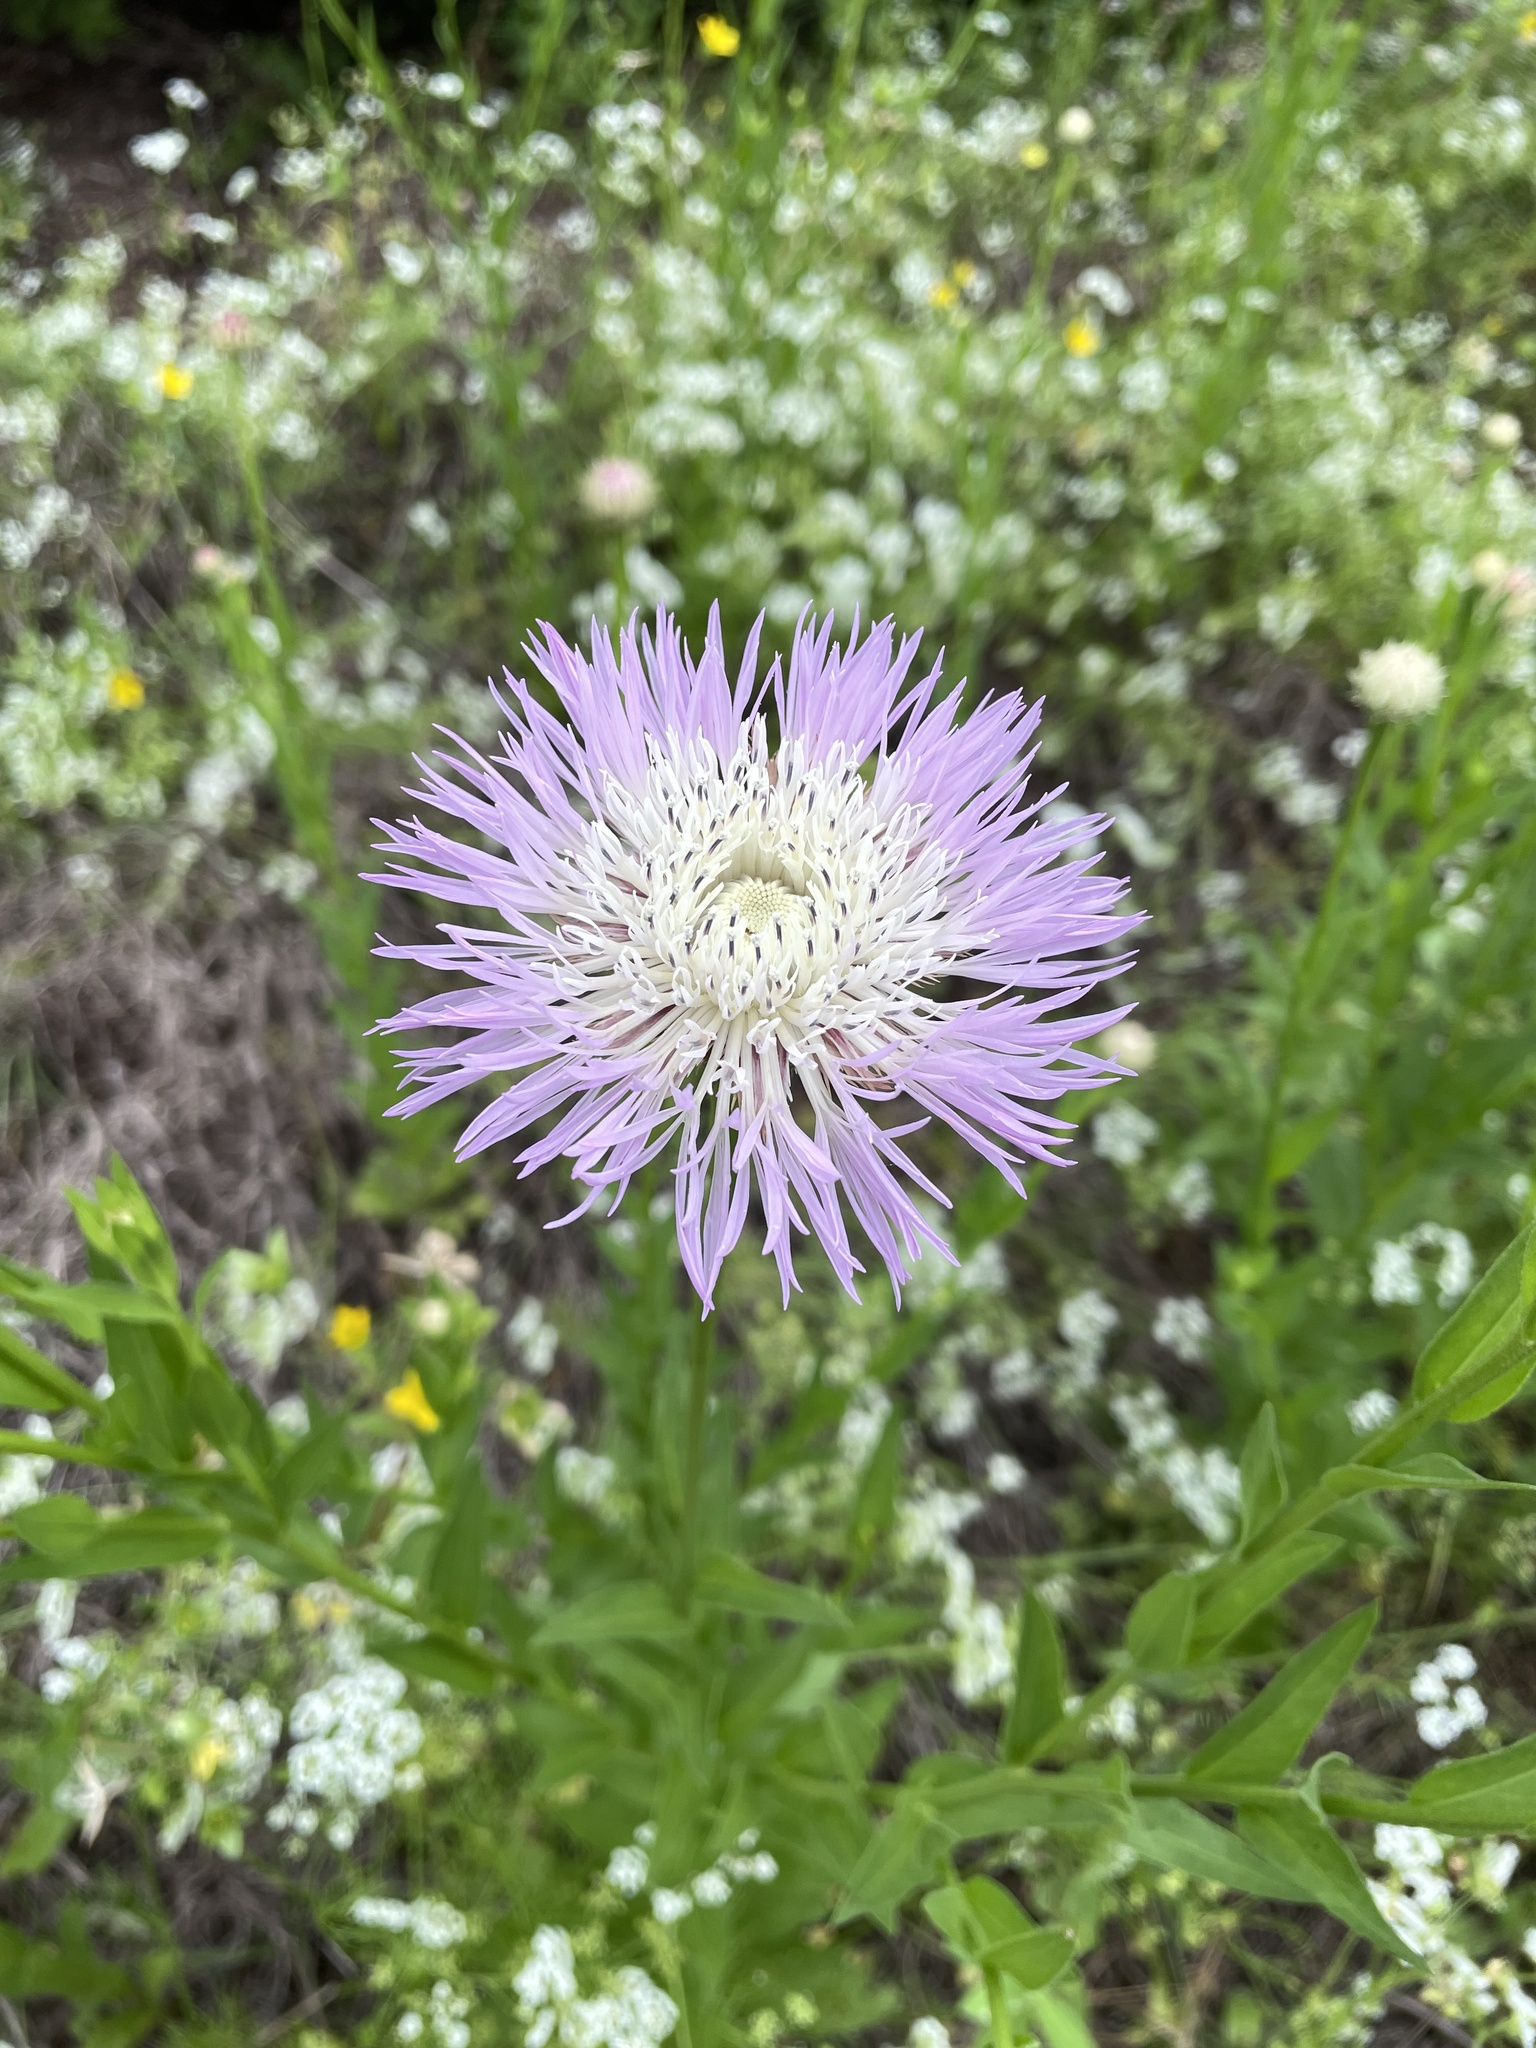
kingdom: Plantae
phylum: Tracheophyta
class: Magnoliopsida
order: Asterales
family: Asteraceae
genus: Plectocephalus
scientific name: Plectocephalus americanus
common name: American basket-flower
